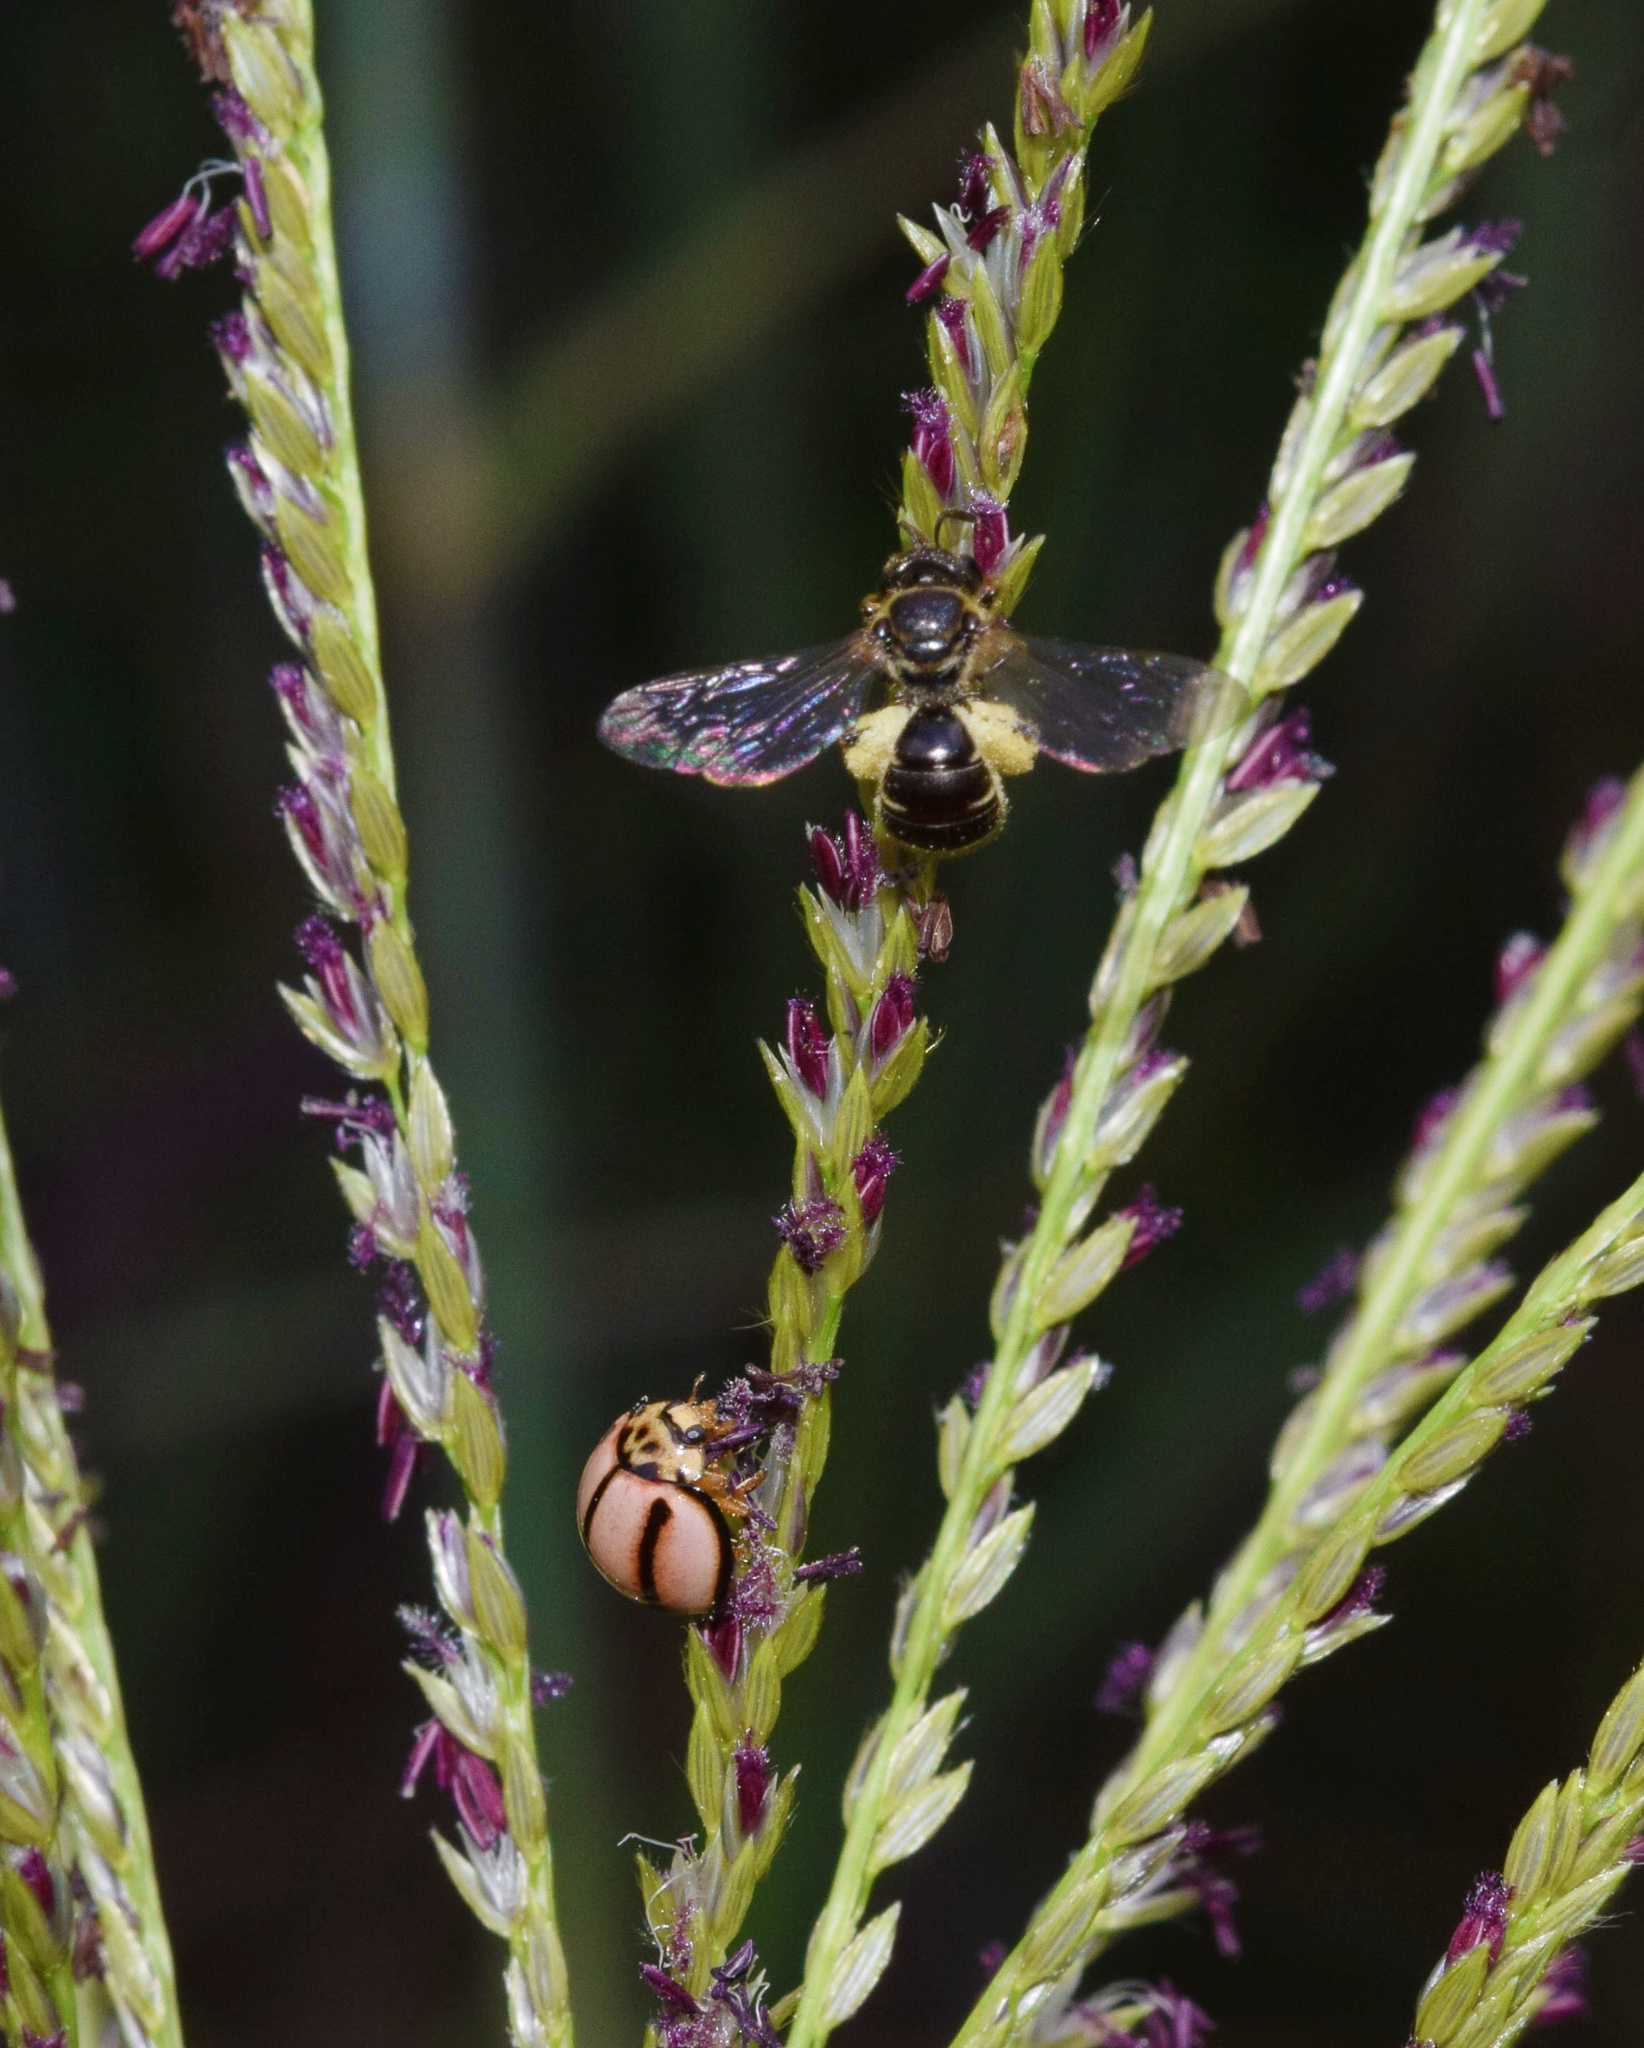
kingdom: Animalia
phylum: Arthropoda
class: Insecta
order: Coleoptera
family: Coccinellidae
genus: Declivitata
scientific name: Declivitata
